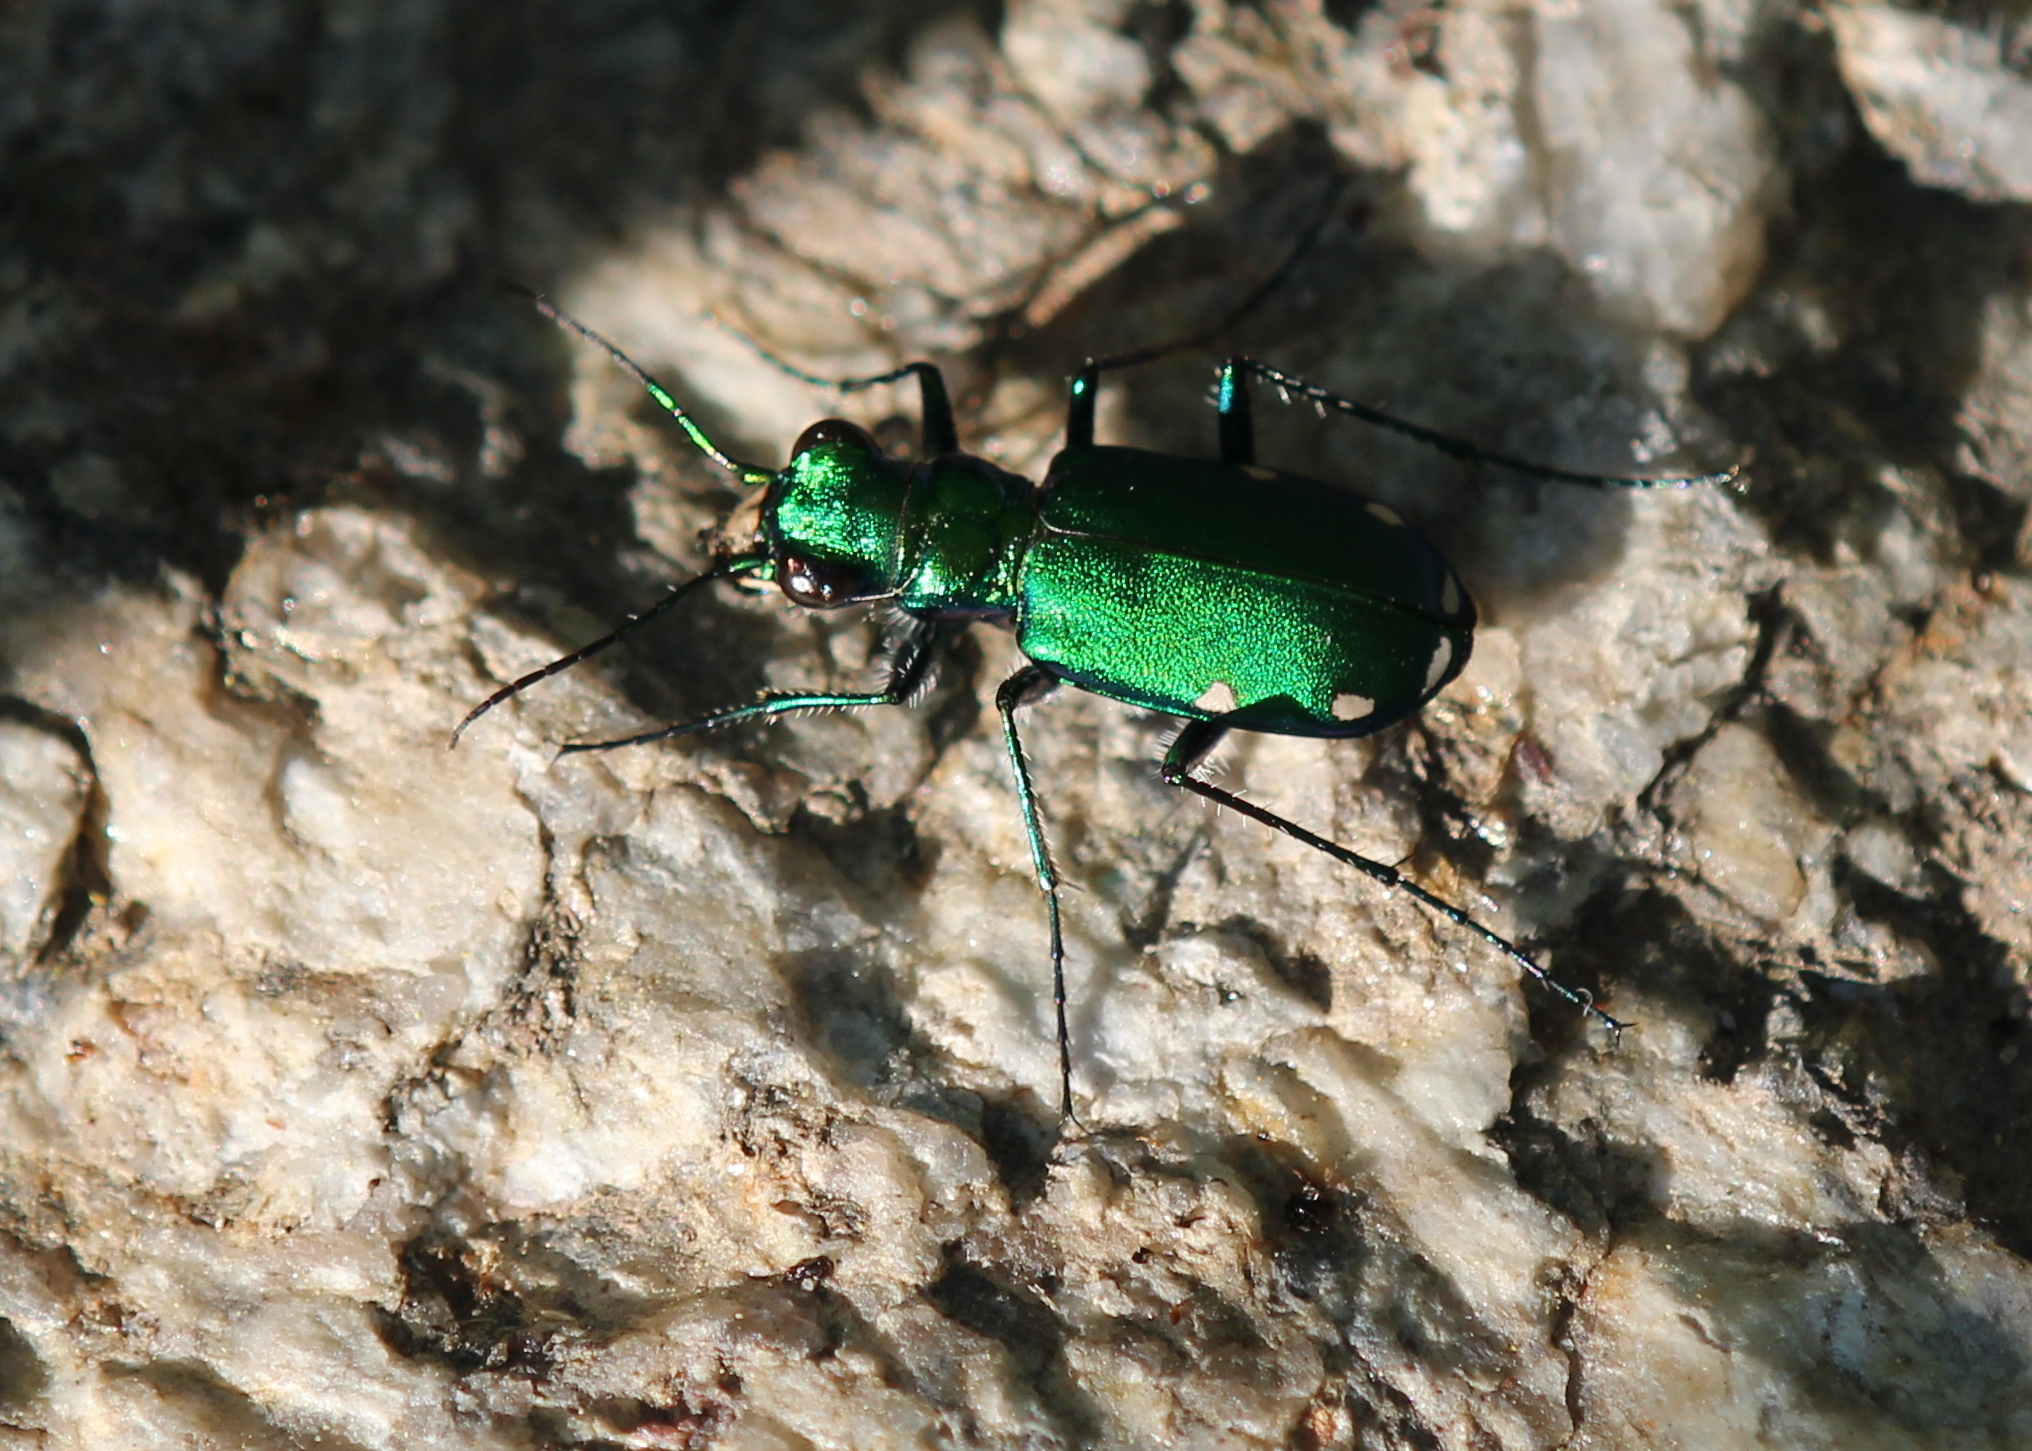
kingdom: Animalia
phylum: Arthropoda
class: Insecta
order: Coleoptera
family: Carabidae
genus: Cicindela
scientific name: Cicindela sexguttata
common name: Six-spotted tiger beetle
